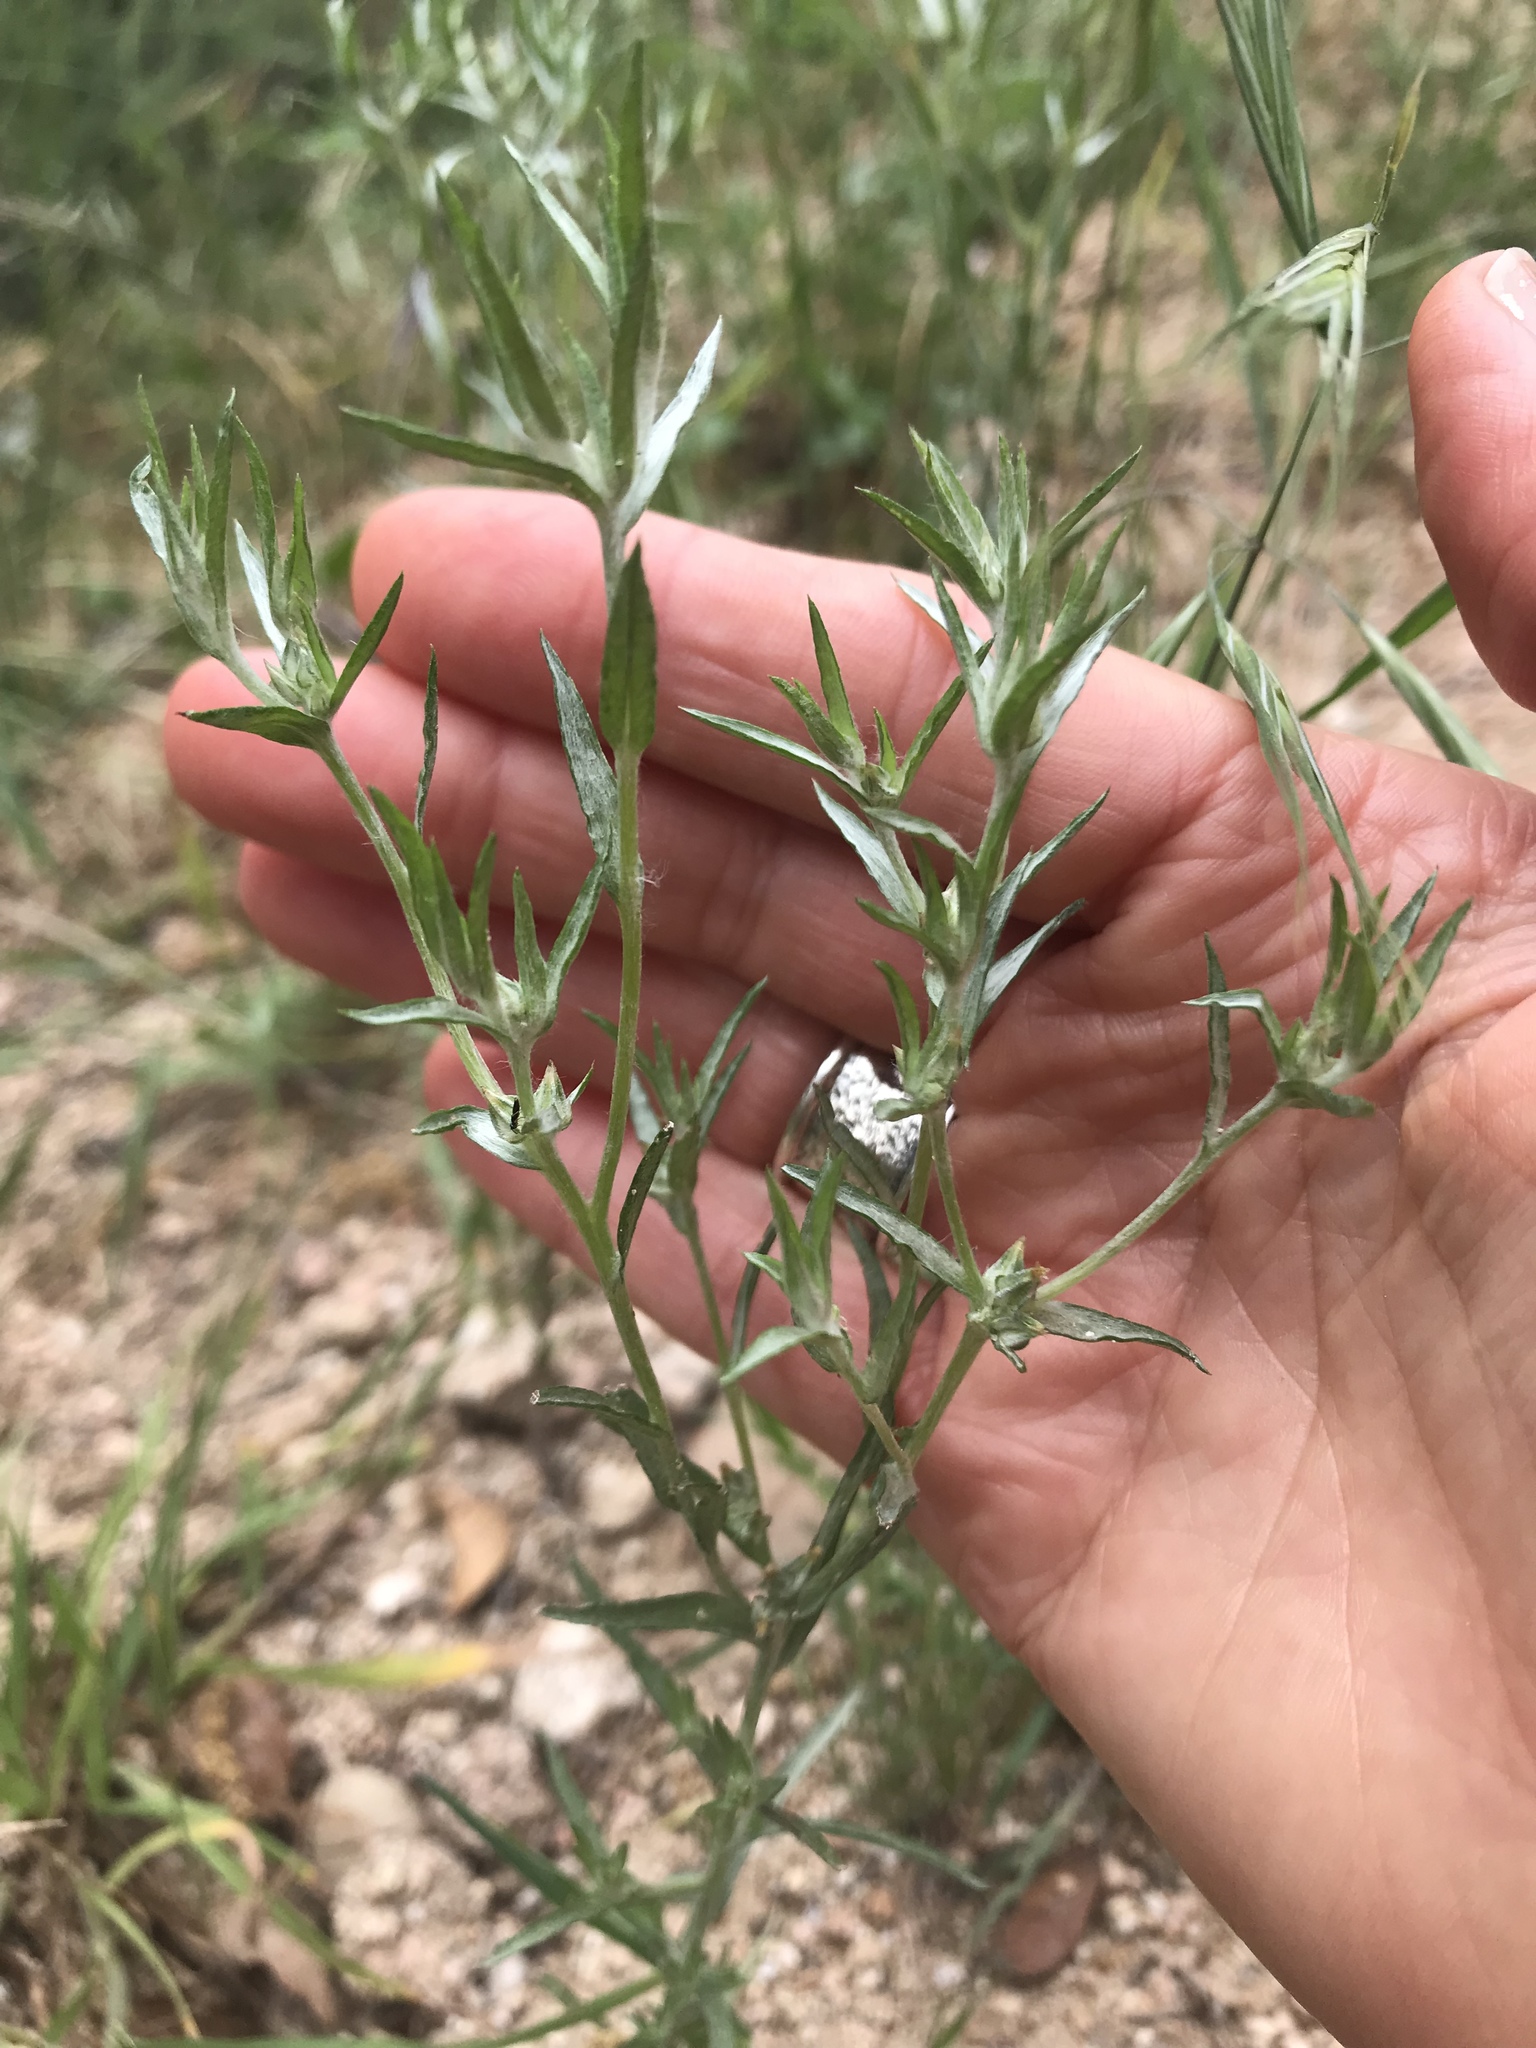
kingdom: Plantae
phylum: Tracheophyta
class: Magnoliopsida
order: Asterales
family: Asteraceae
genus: Logfia
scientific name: Logfia gallica
